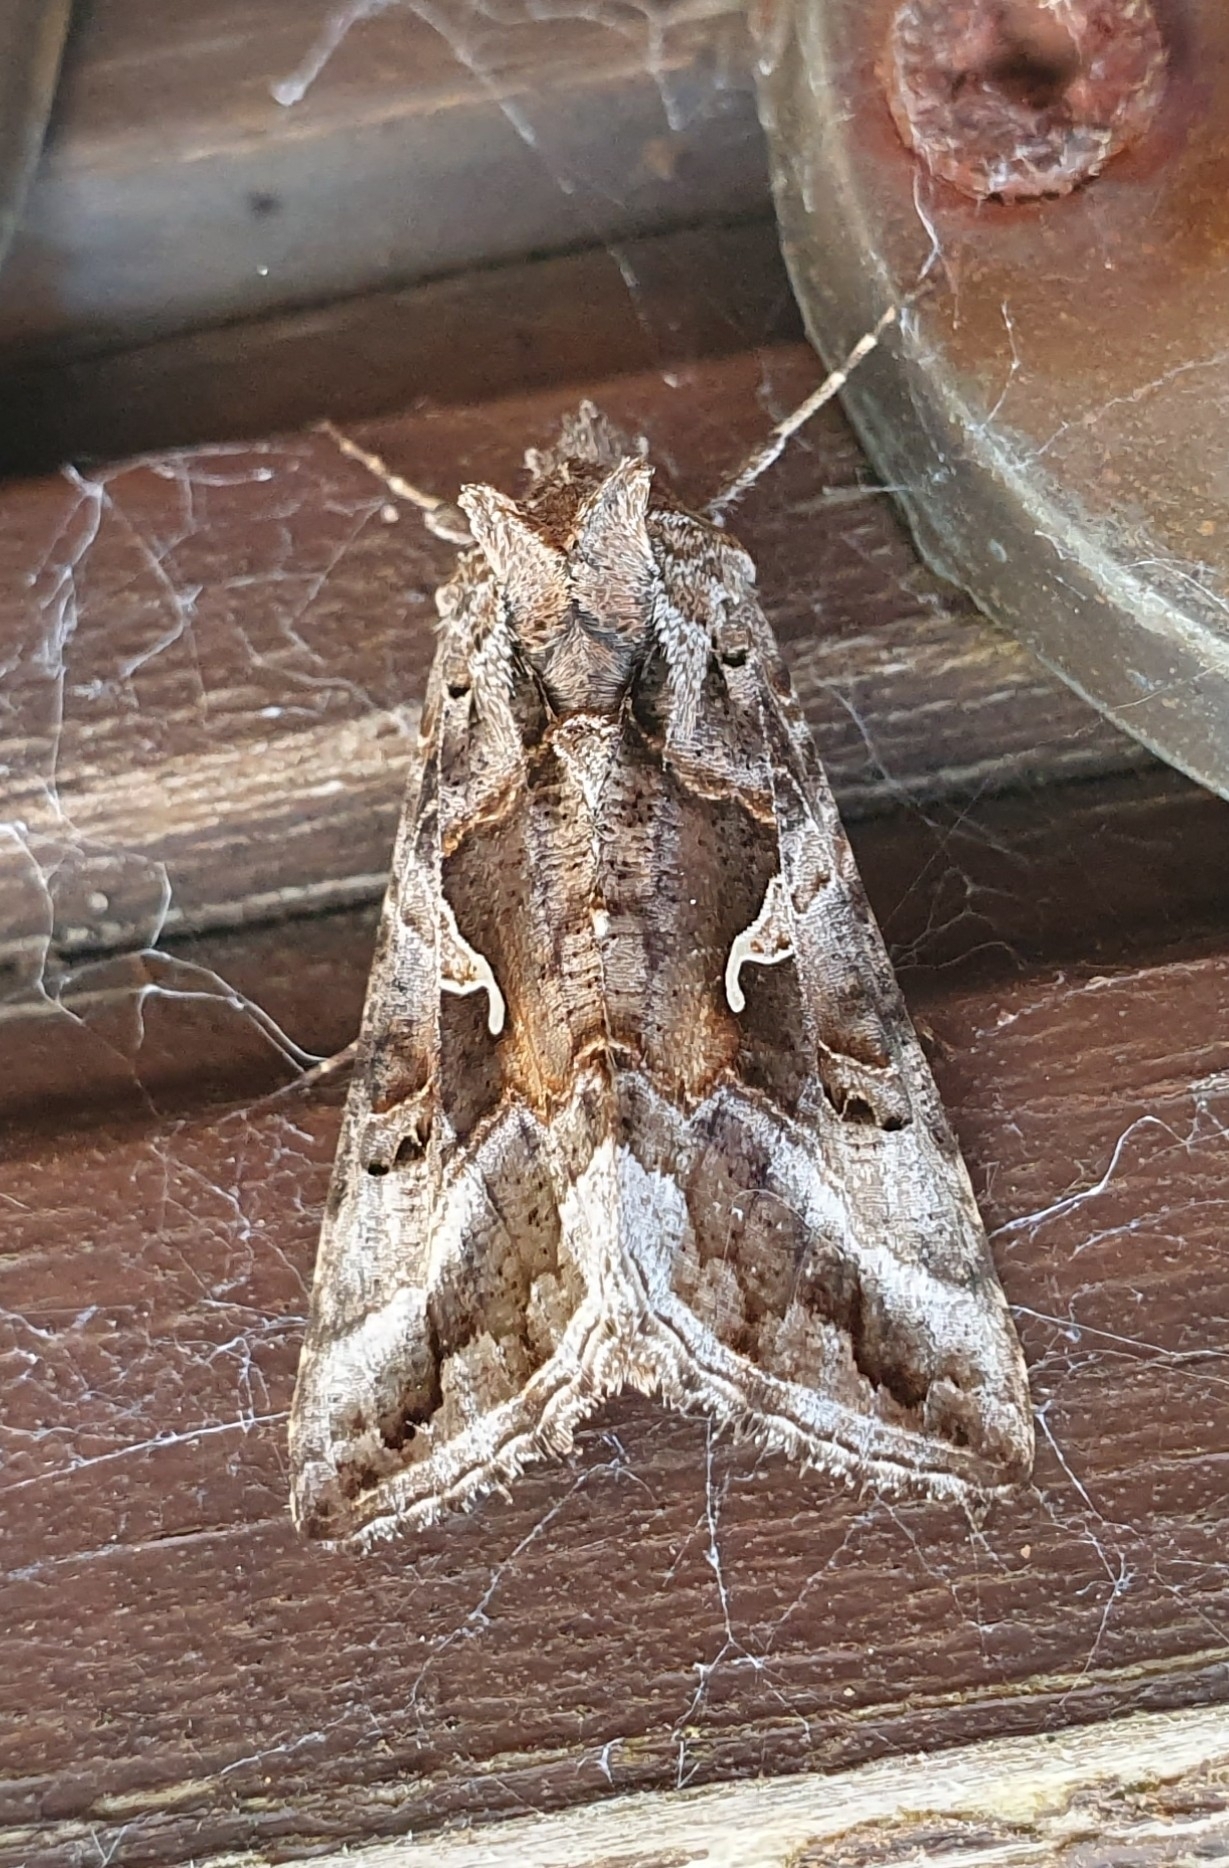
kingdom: Animalia
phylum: Arthropoda
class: Insecta
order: Lepidoptera
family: Noctuidae
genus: Autographa
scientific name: Autographa gamma
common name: Silver y
